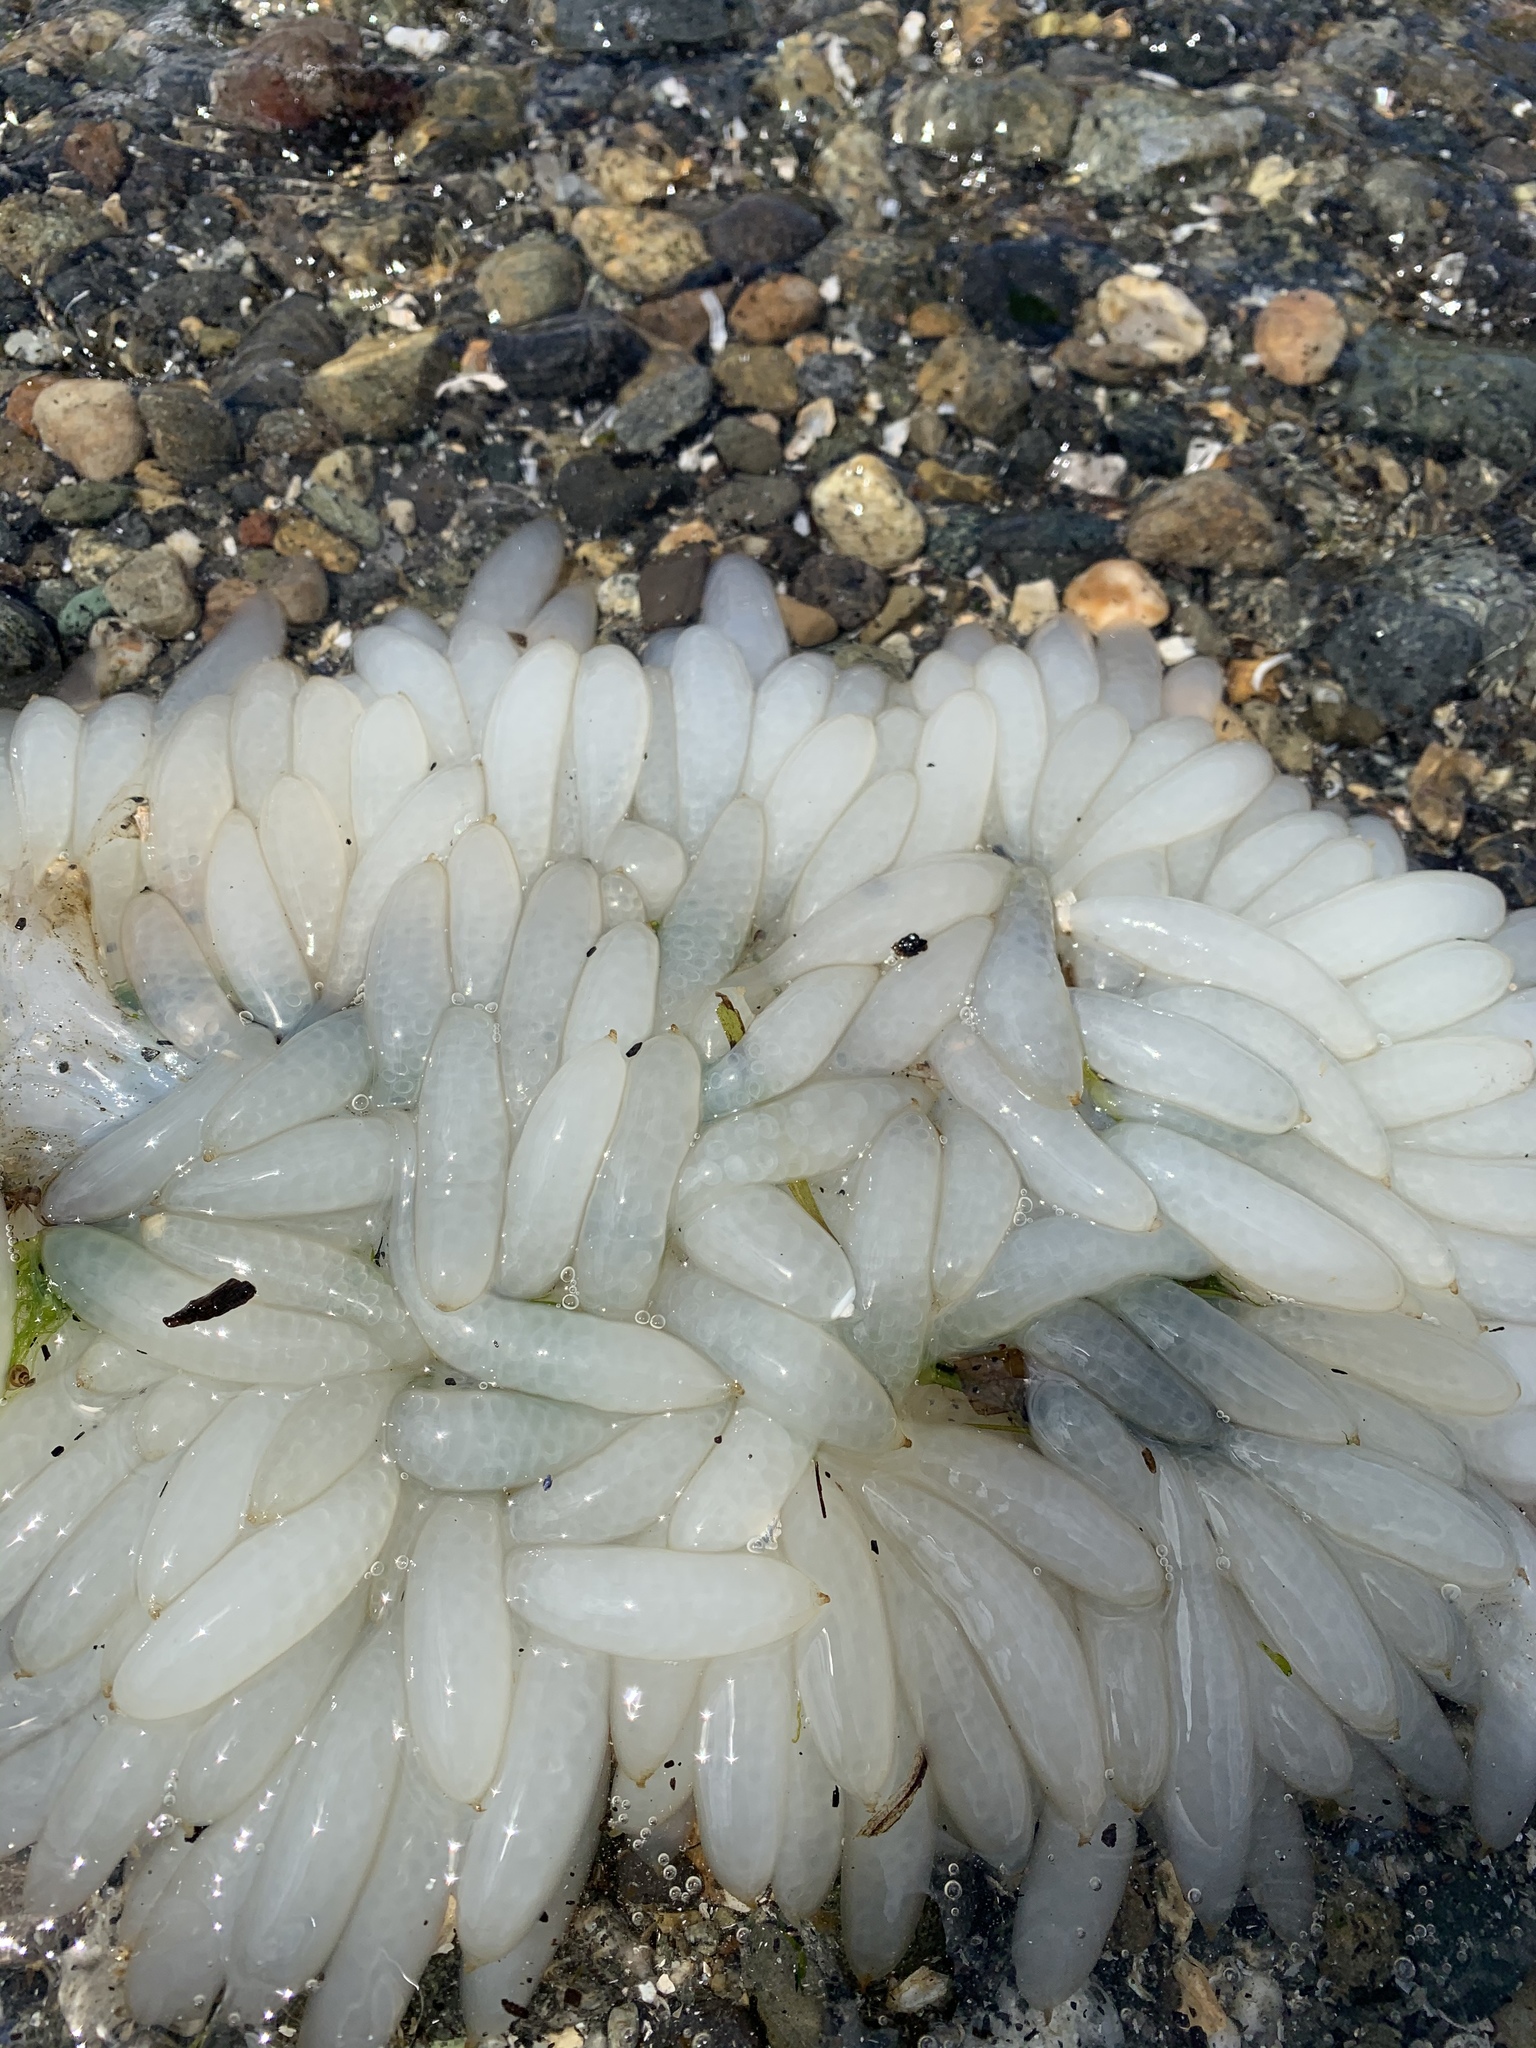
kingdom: Animalia
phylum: Mollusca
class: Cephalopoda
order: Myopsida
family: Loliginidae
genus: Doryteuthis
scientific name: Doryteuthis opalescens
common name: Opalescent inshore squid
